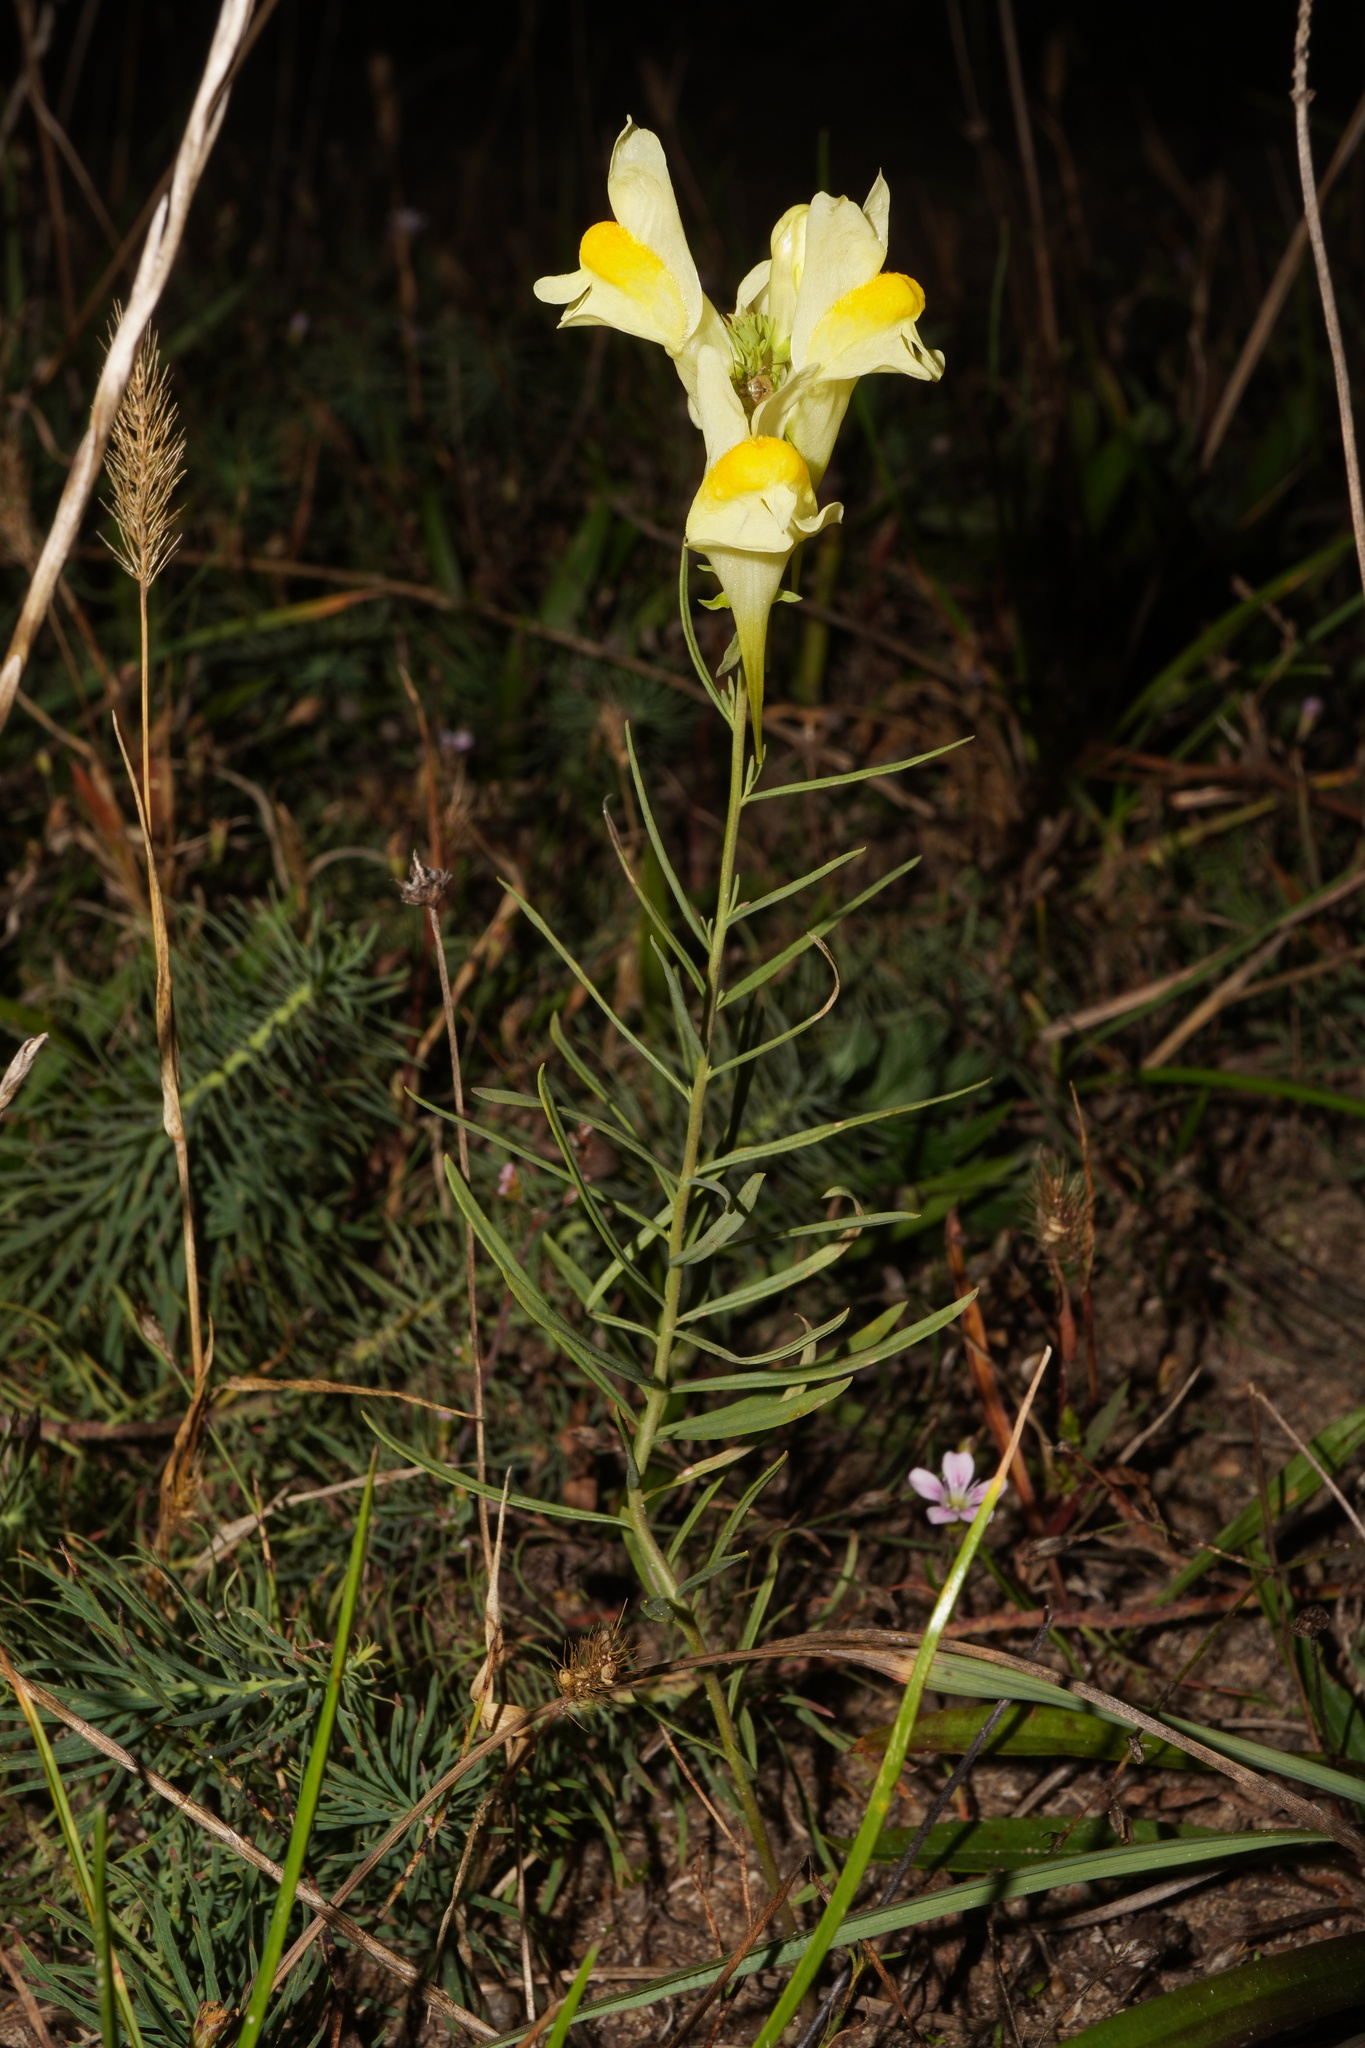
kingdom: Plantae
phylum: Tracheophyta
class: Magnoliopsida
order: Lamiales
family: Plantaginaceae
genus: Linaria
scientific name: Linaria vulgaris
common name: Butter and eggs
